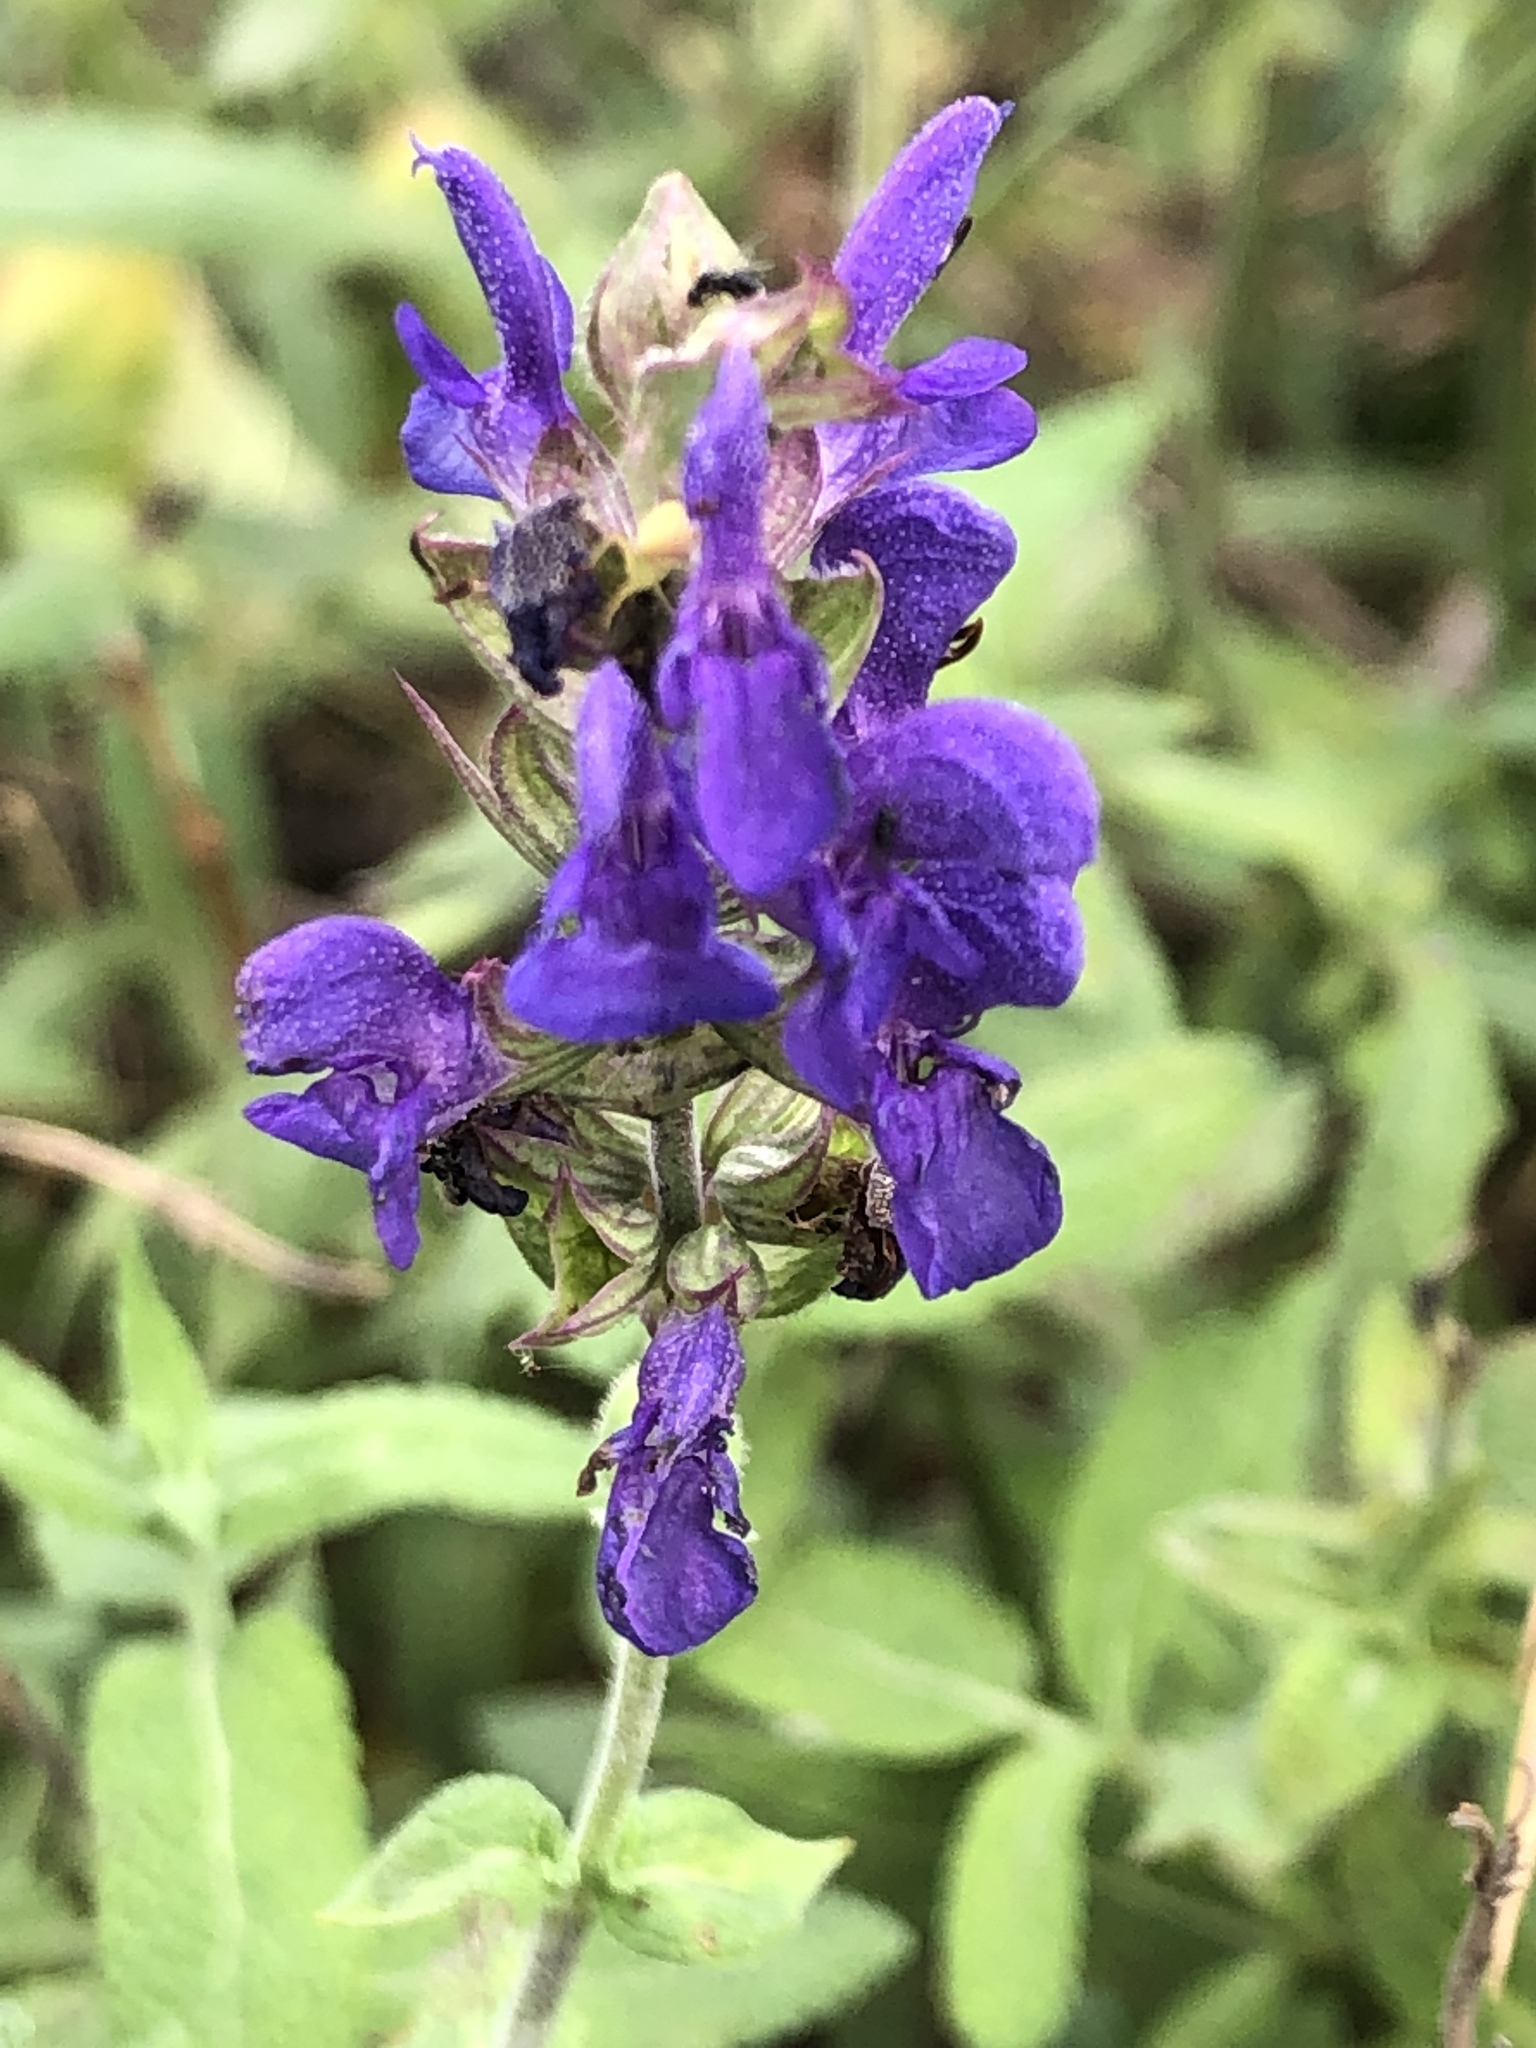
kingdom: Plantae
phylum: Tracheophyta
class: Magnoliopsida
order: Lamiales
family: Lamiaceae
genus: Salvia
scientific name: Salvia pratensis
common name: Meadow sage
